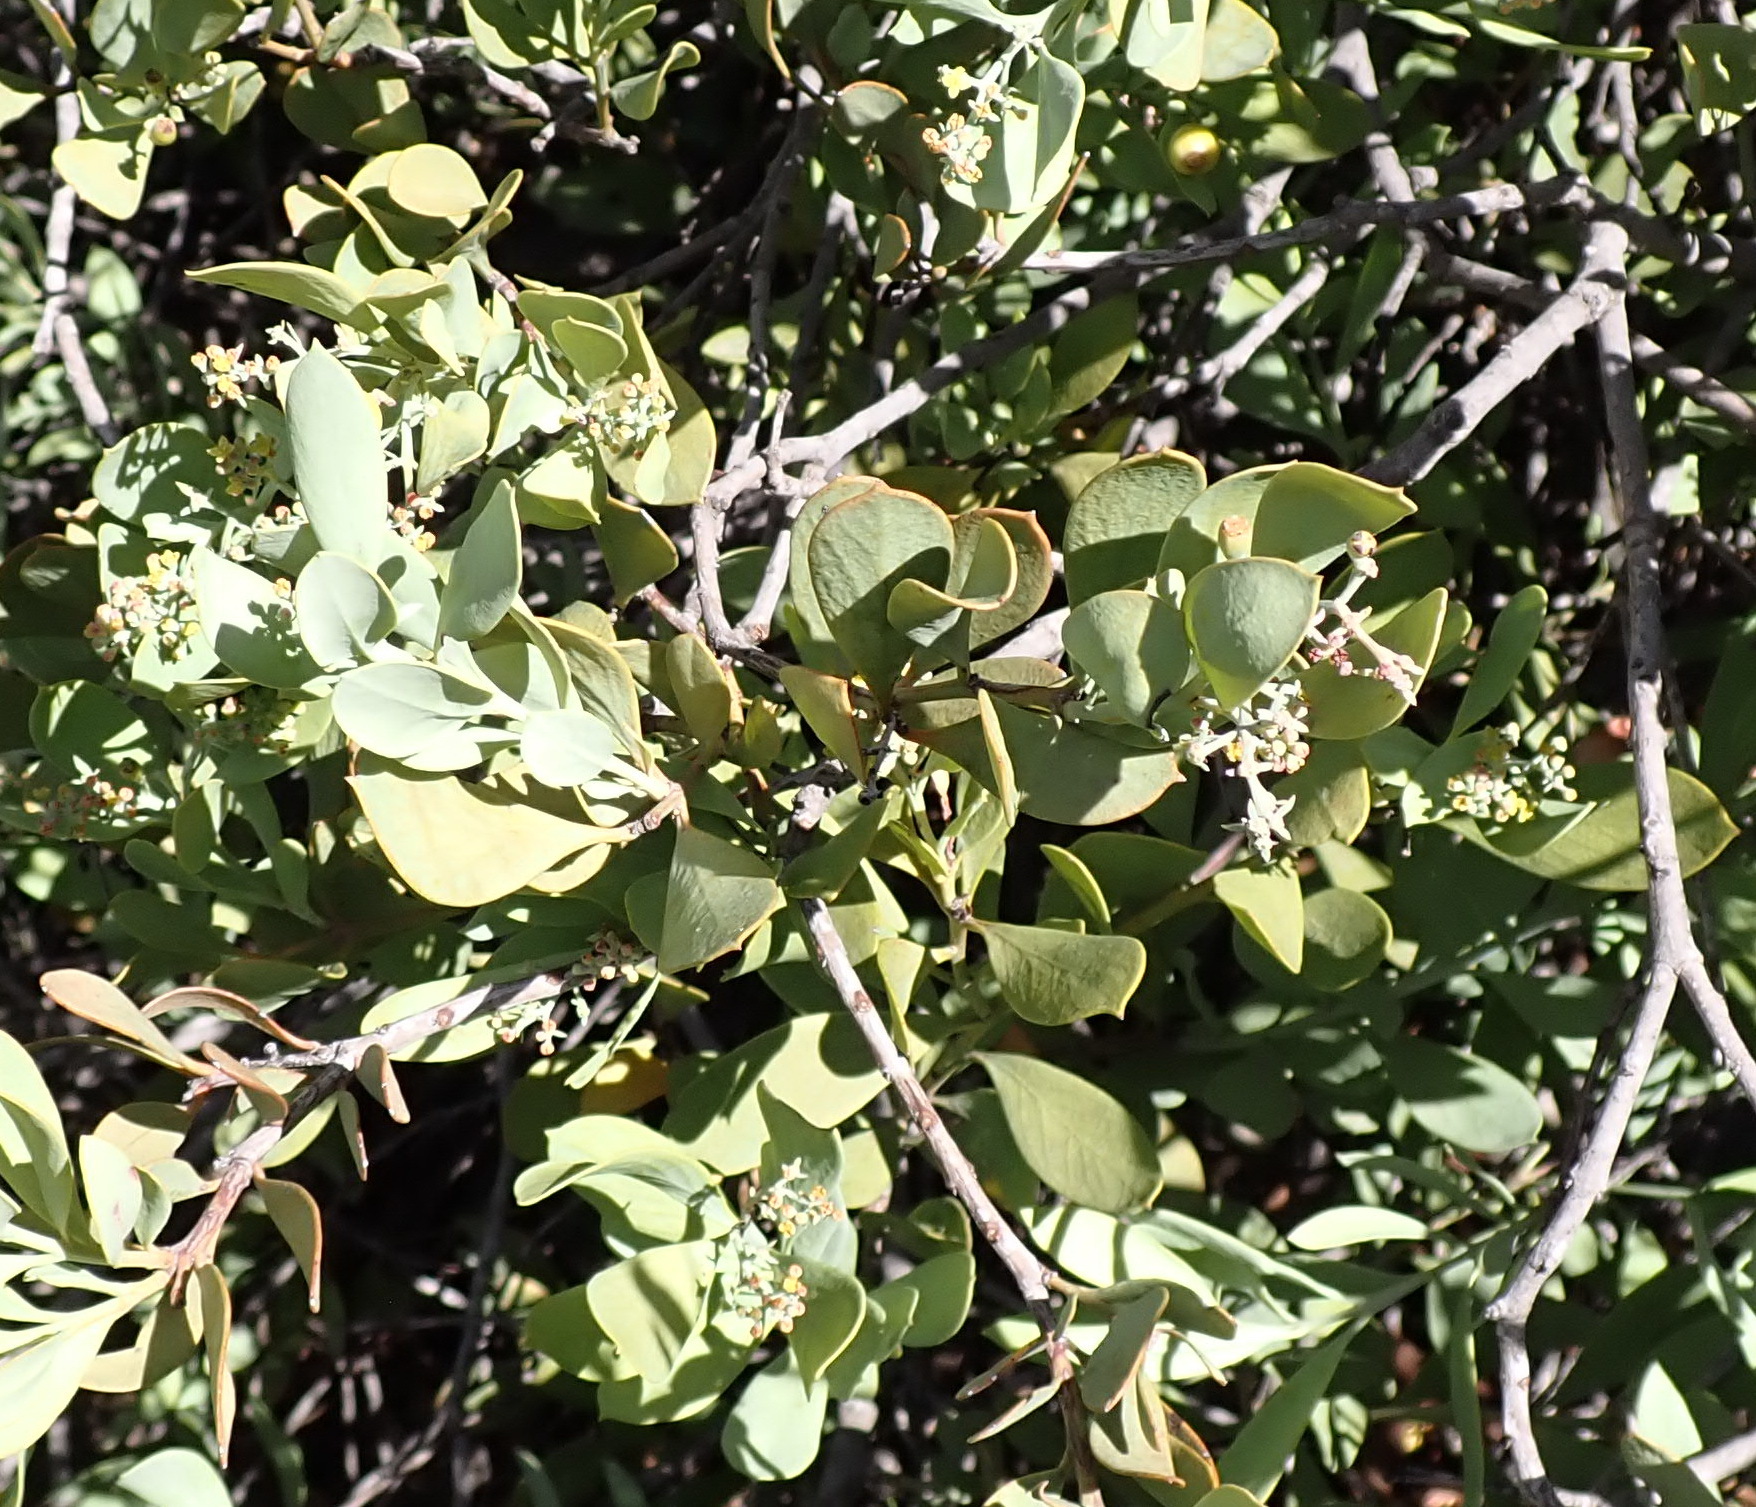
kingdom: Plantae
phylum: Tracheophyta
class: Magnoliopsida
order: Santalales
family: Santalaceae
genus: Osyris
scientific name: Osyris compressa
